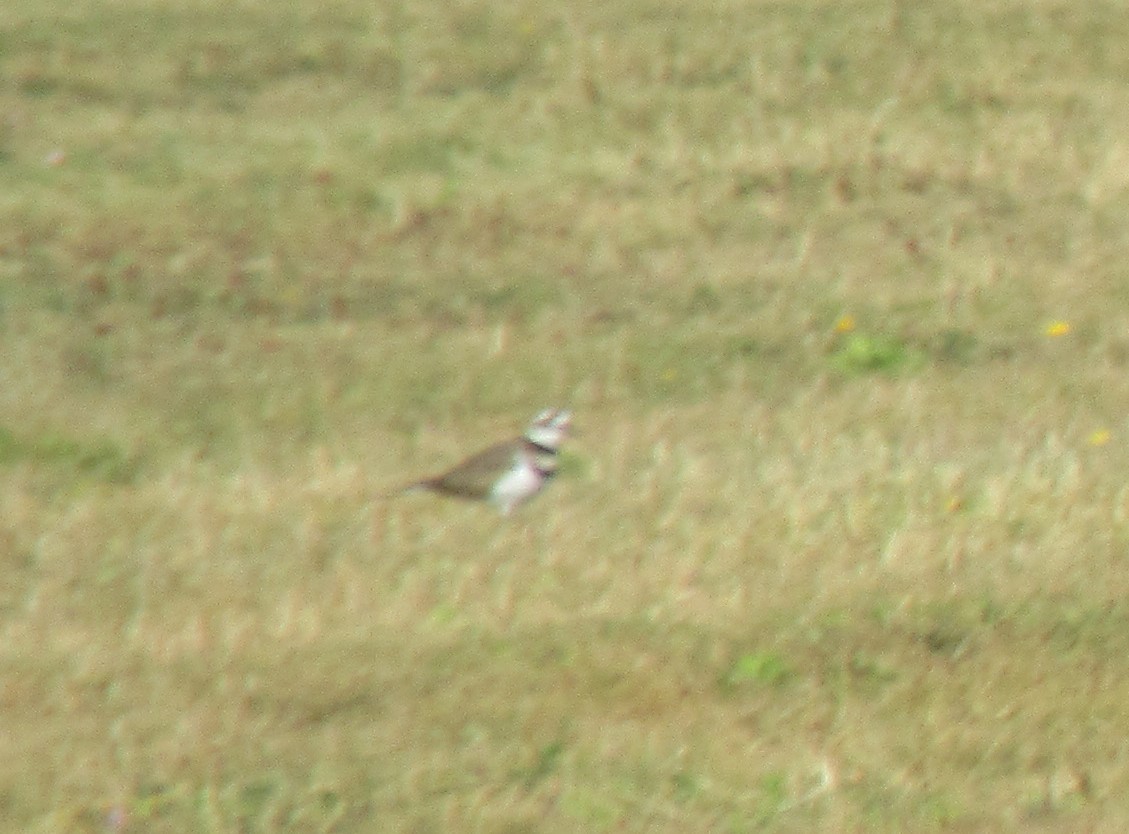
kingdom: Animalia
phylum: Chordata
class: Aves
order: Charadriiformes
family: Charadriidae
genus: Charadrius
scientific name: Charadrius vociferus
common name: Killdeer
